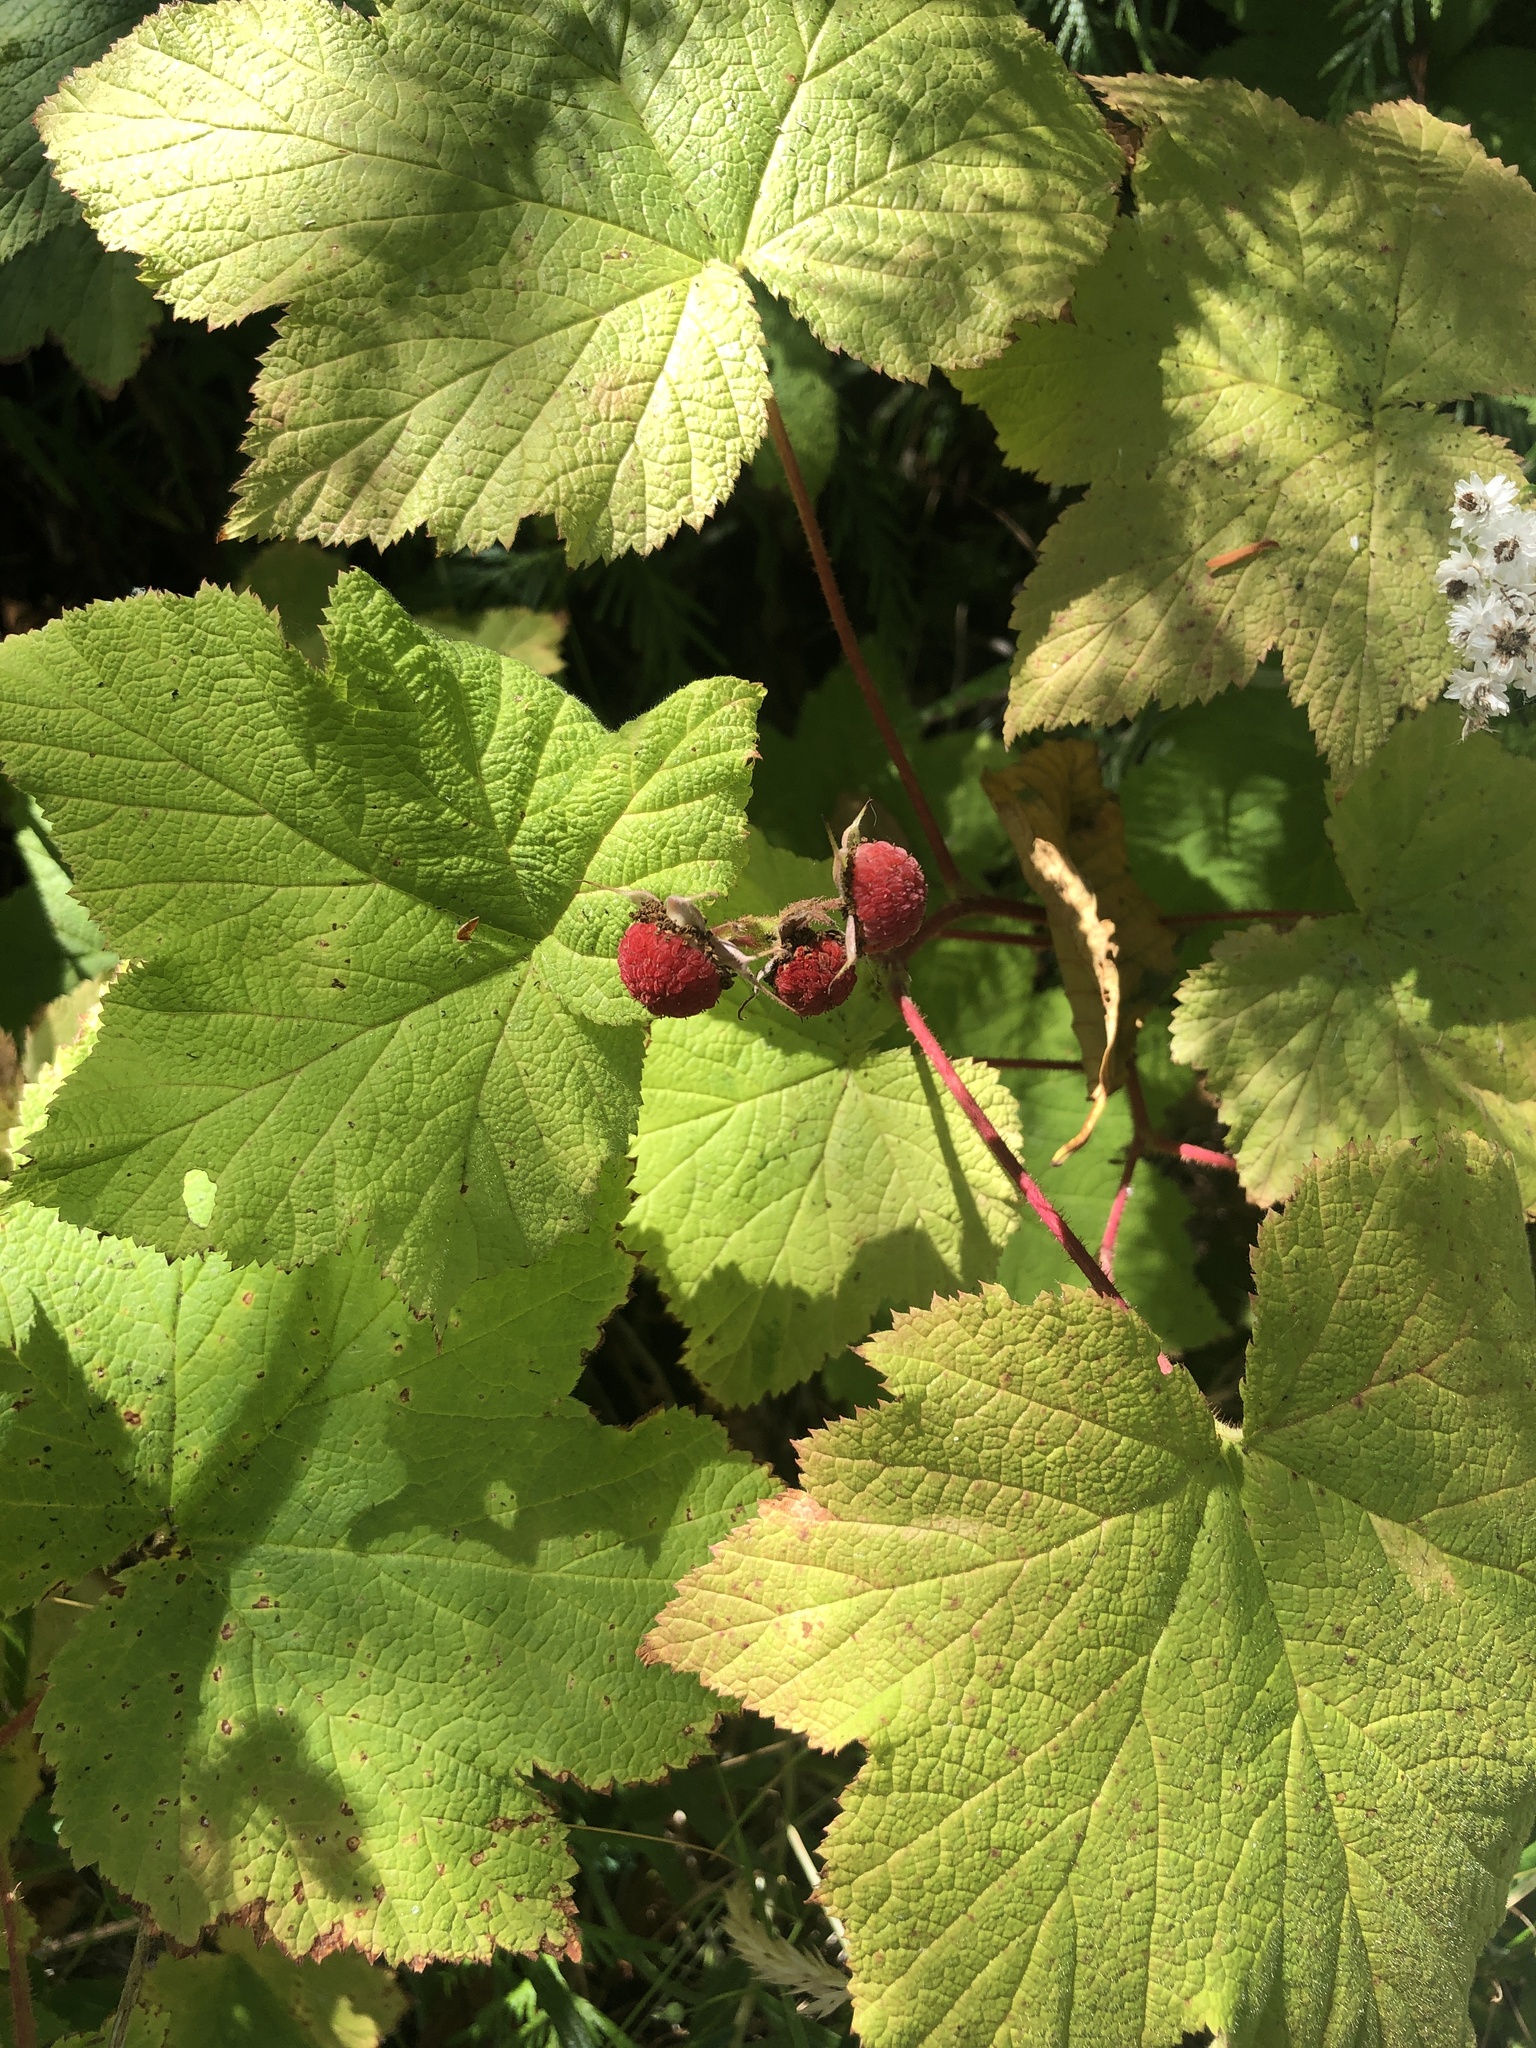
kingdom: Plantae
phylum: Tracheophyta
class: Magnoliopsida
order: Rosales
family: Rosaceae
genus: Rubus
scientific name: Rubus parviflorus
